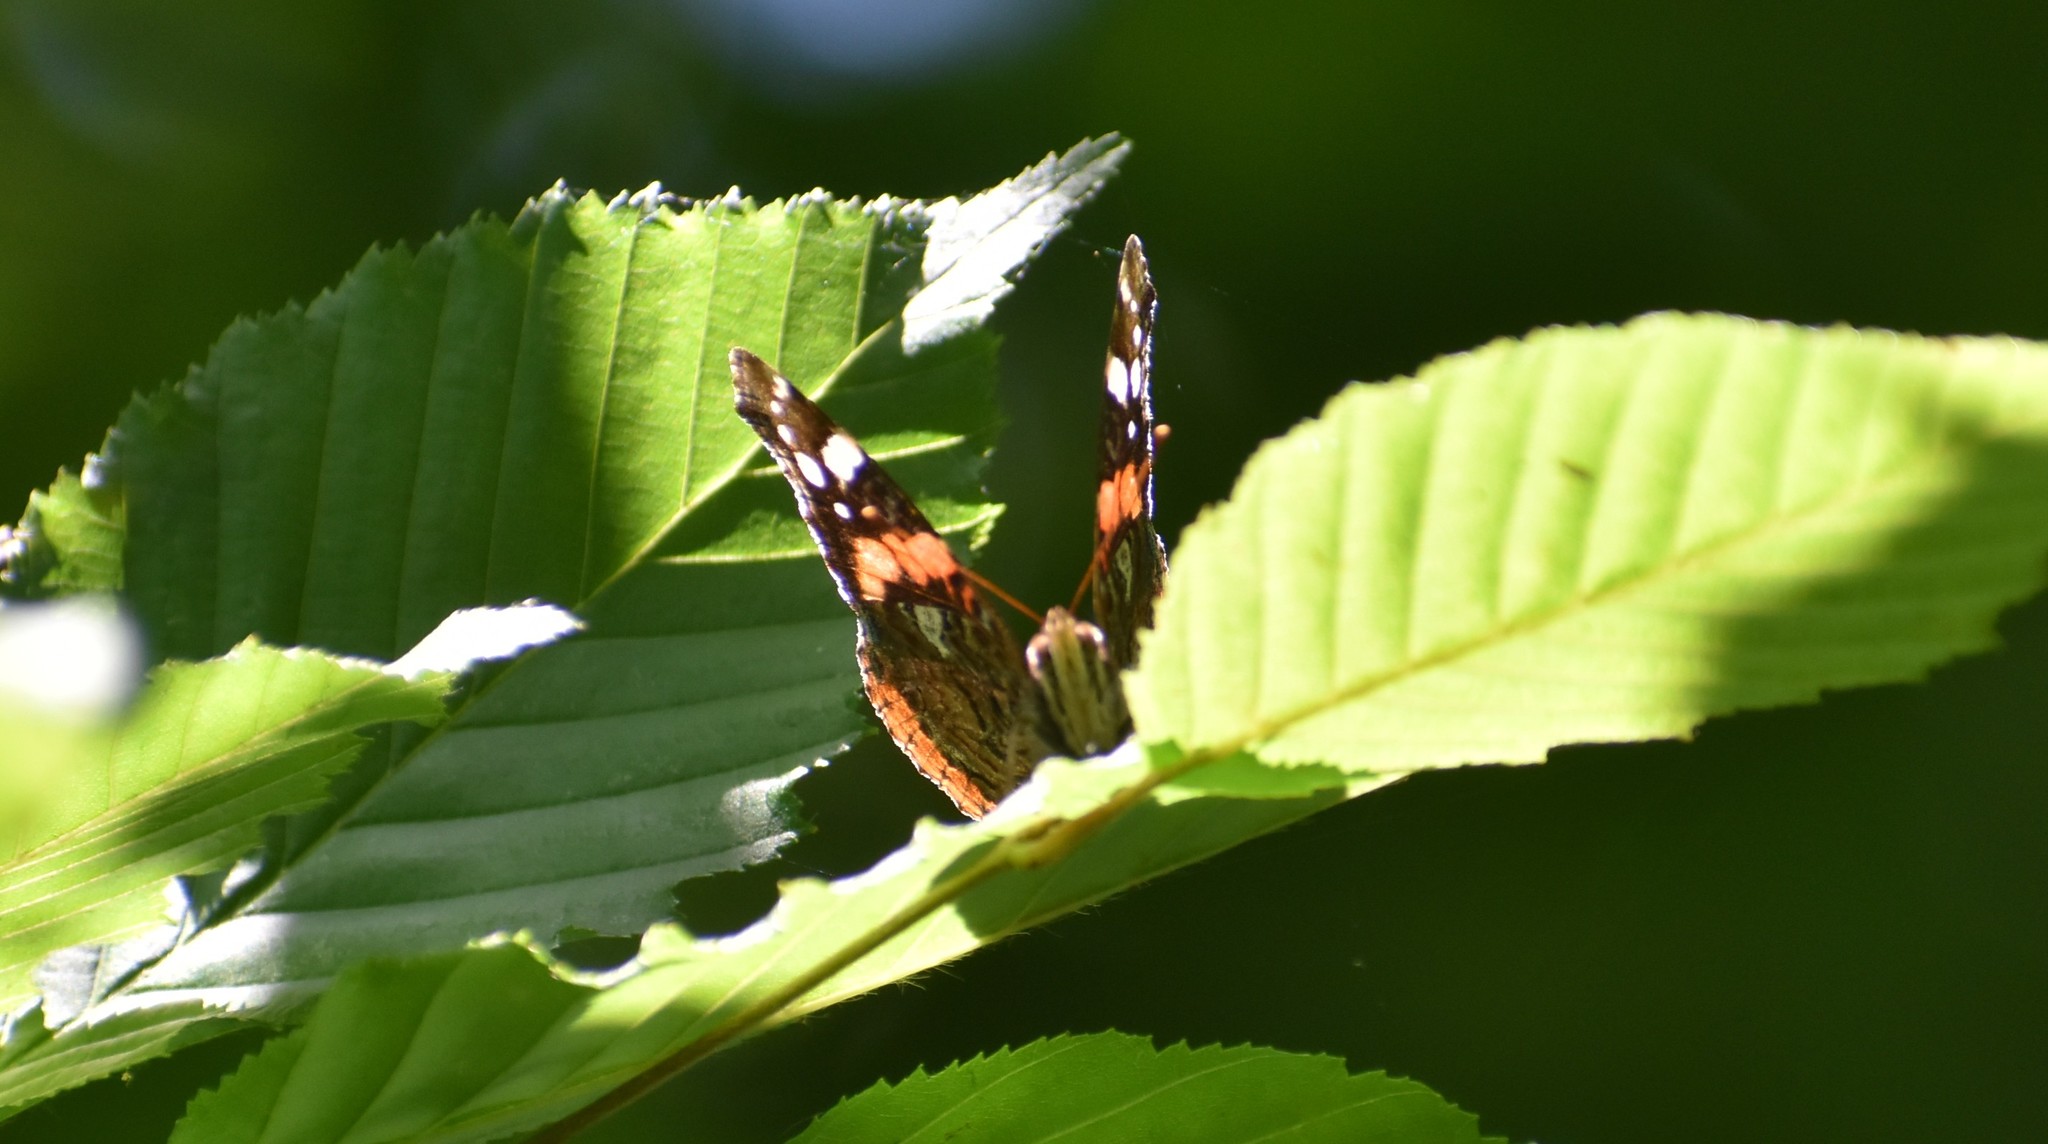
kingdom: Animalia
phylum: Arthropoda
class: Insecta
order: Lepidoptera
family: Nymphalidae
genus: Vanessa
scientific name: Vanessa atalanta
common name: Red admiral
